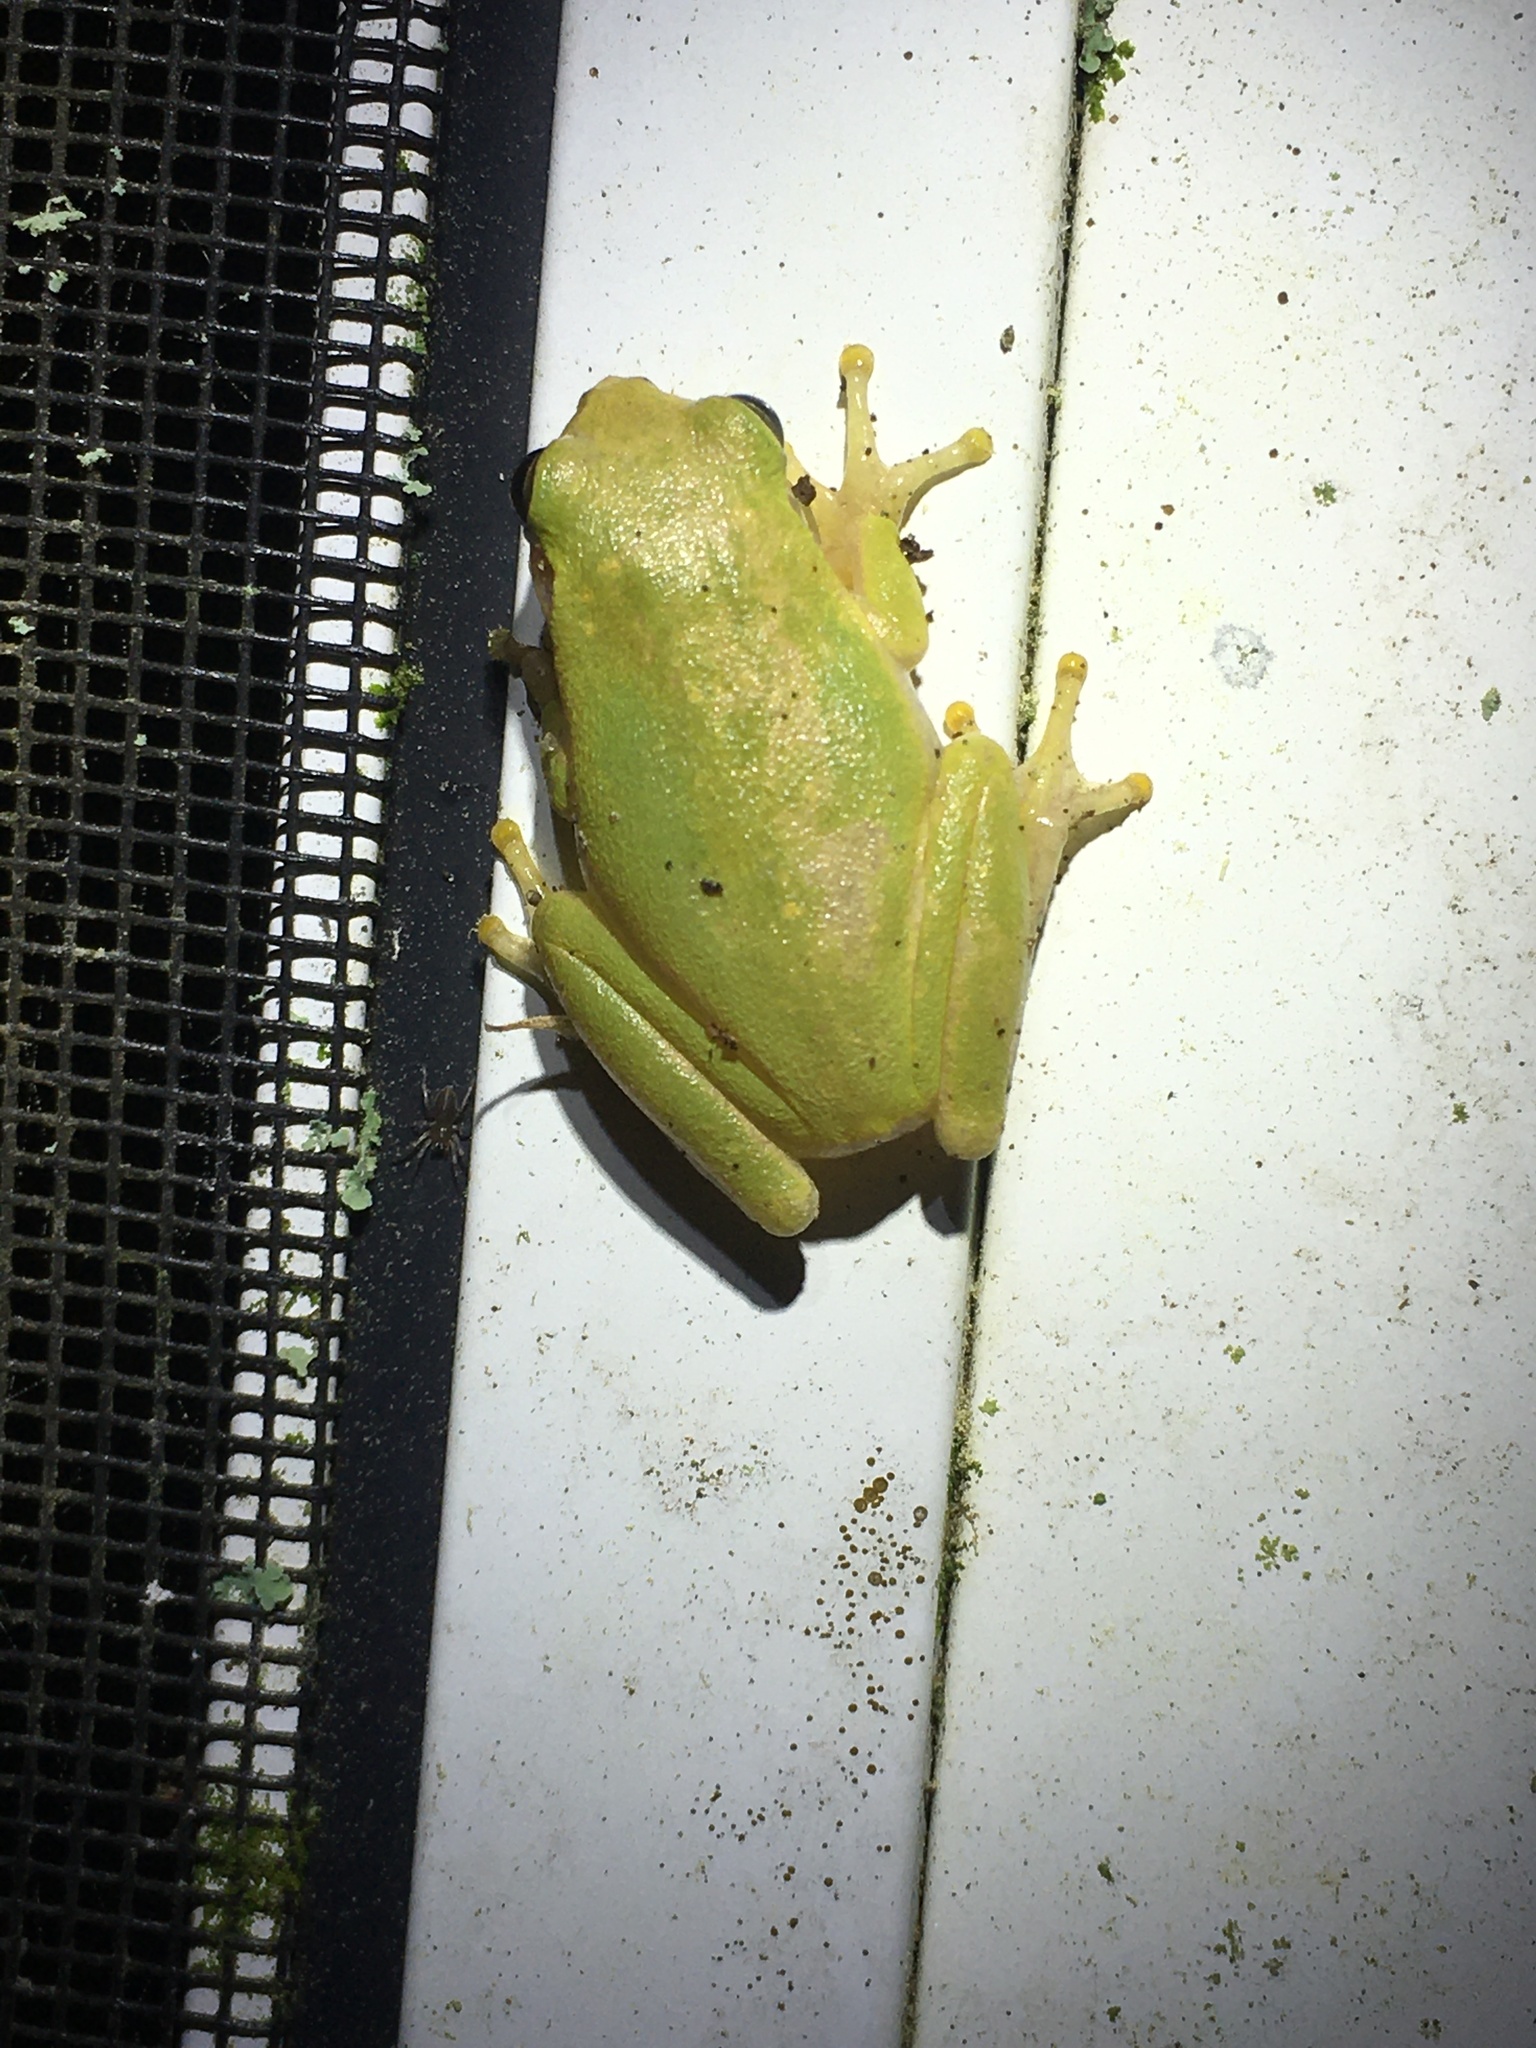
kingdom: Animalia
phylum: Chordata
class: Amphibia
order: Anura
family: Hylidae
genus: Dryophytes
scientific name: Dryophytes squirellus
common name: Squirrel treefrog
